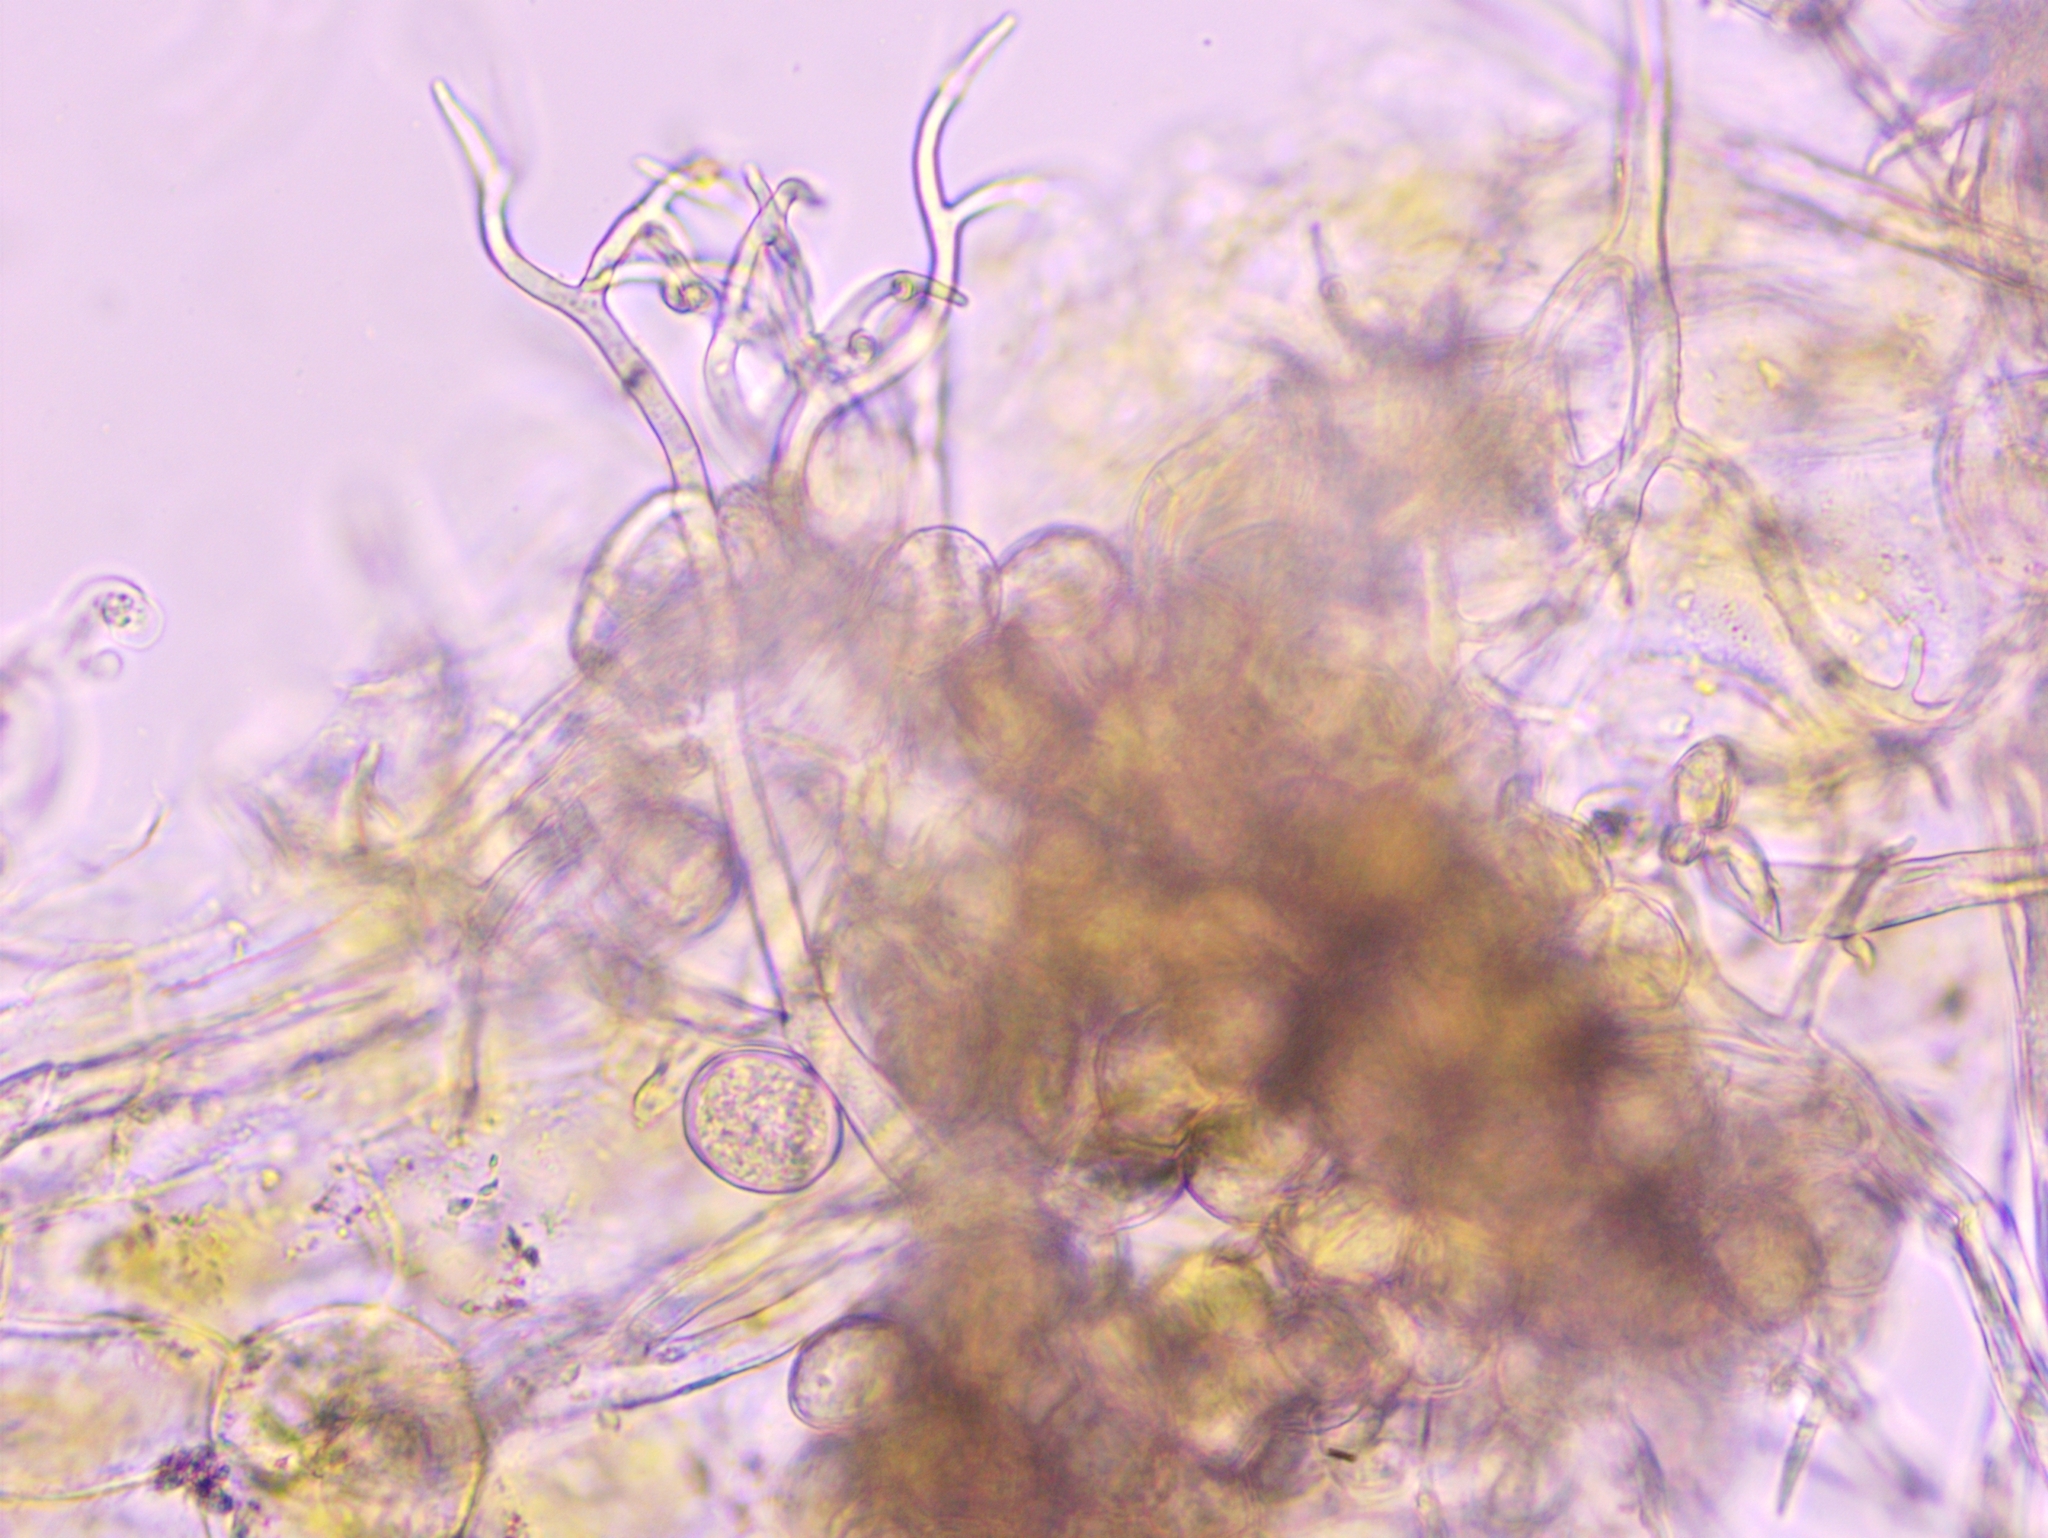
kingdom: Chromista
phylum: Oomycota
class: Peronosporea
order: Peronosporales
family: Peronosporaceae
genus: Peronospora
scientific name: Peronospora bulbocapni
